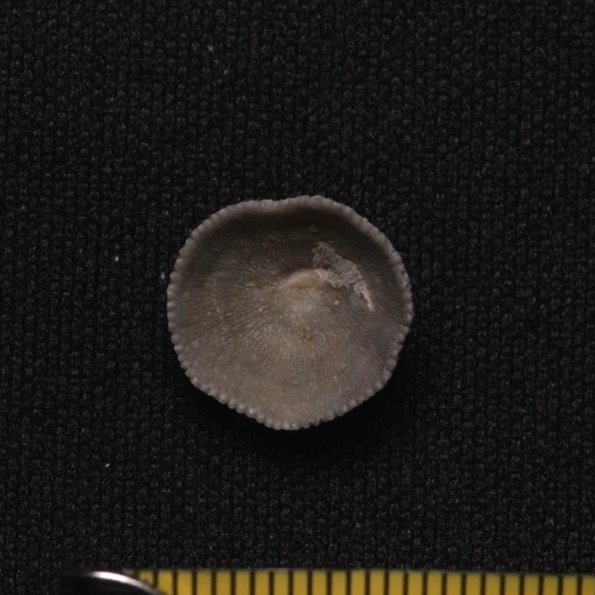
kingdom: Animalia
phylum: Bryozoa
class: Gymnolaemata
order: Cheilostomatida
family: Cupuladriidae
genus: Discoporella
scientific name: Discoporella umbellata
